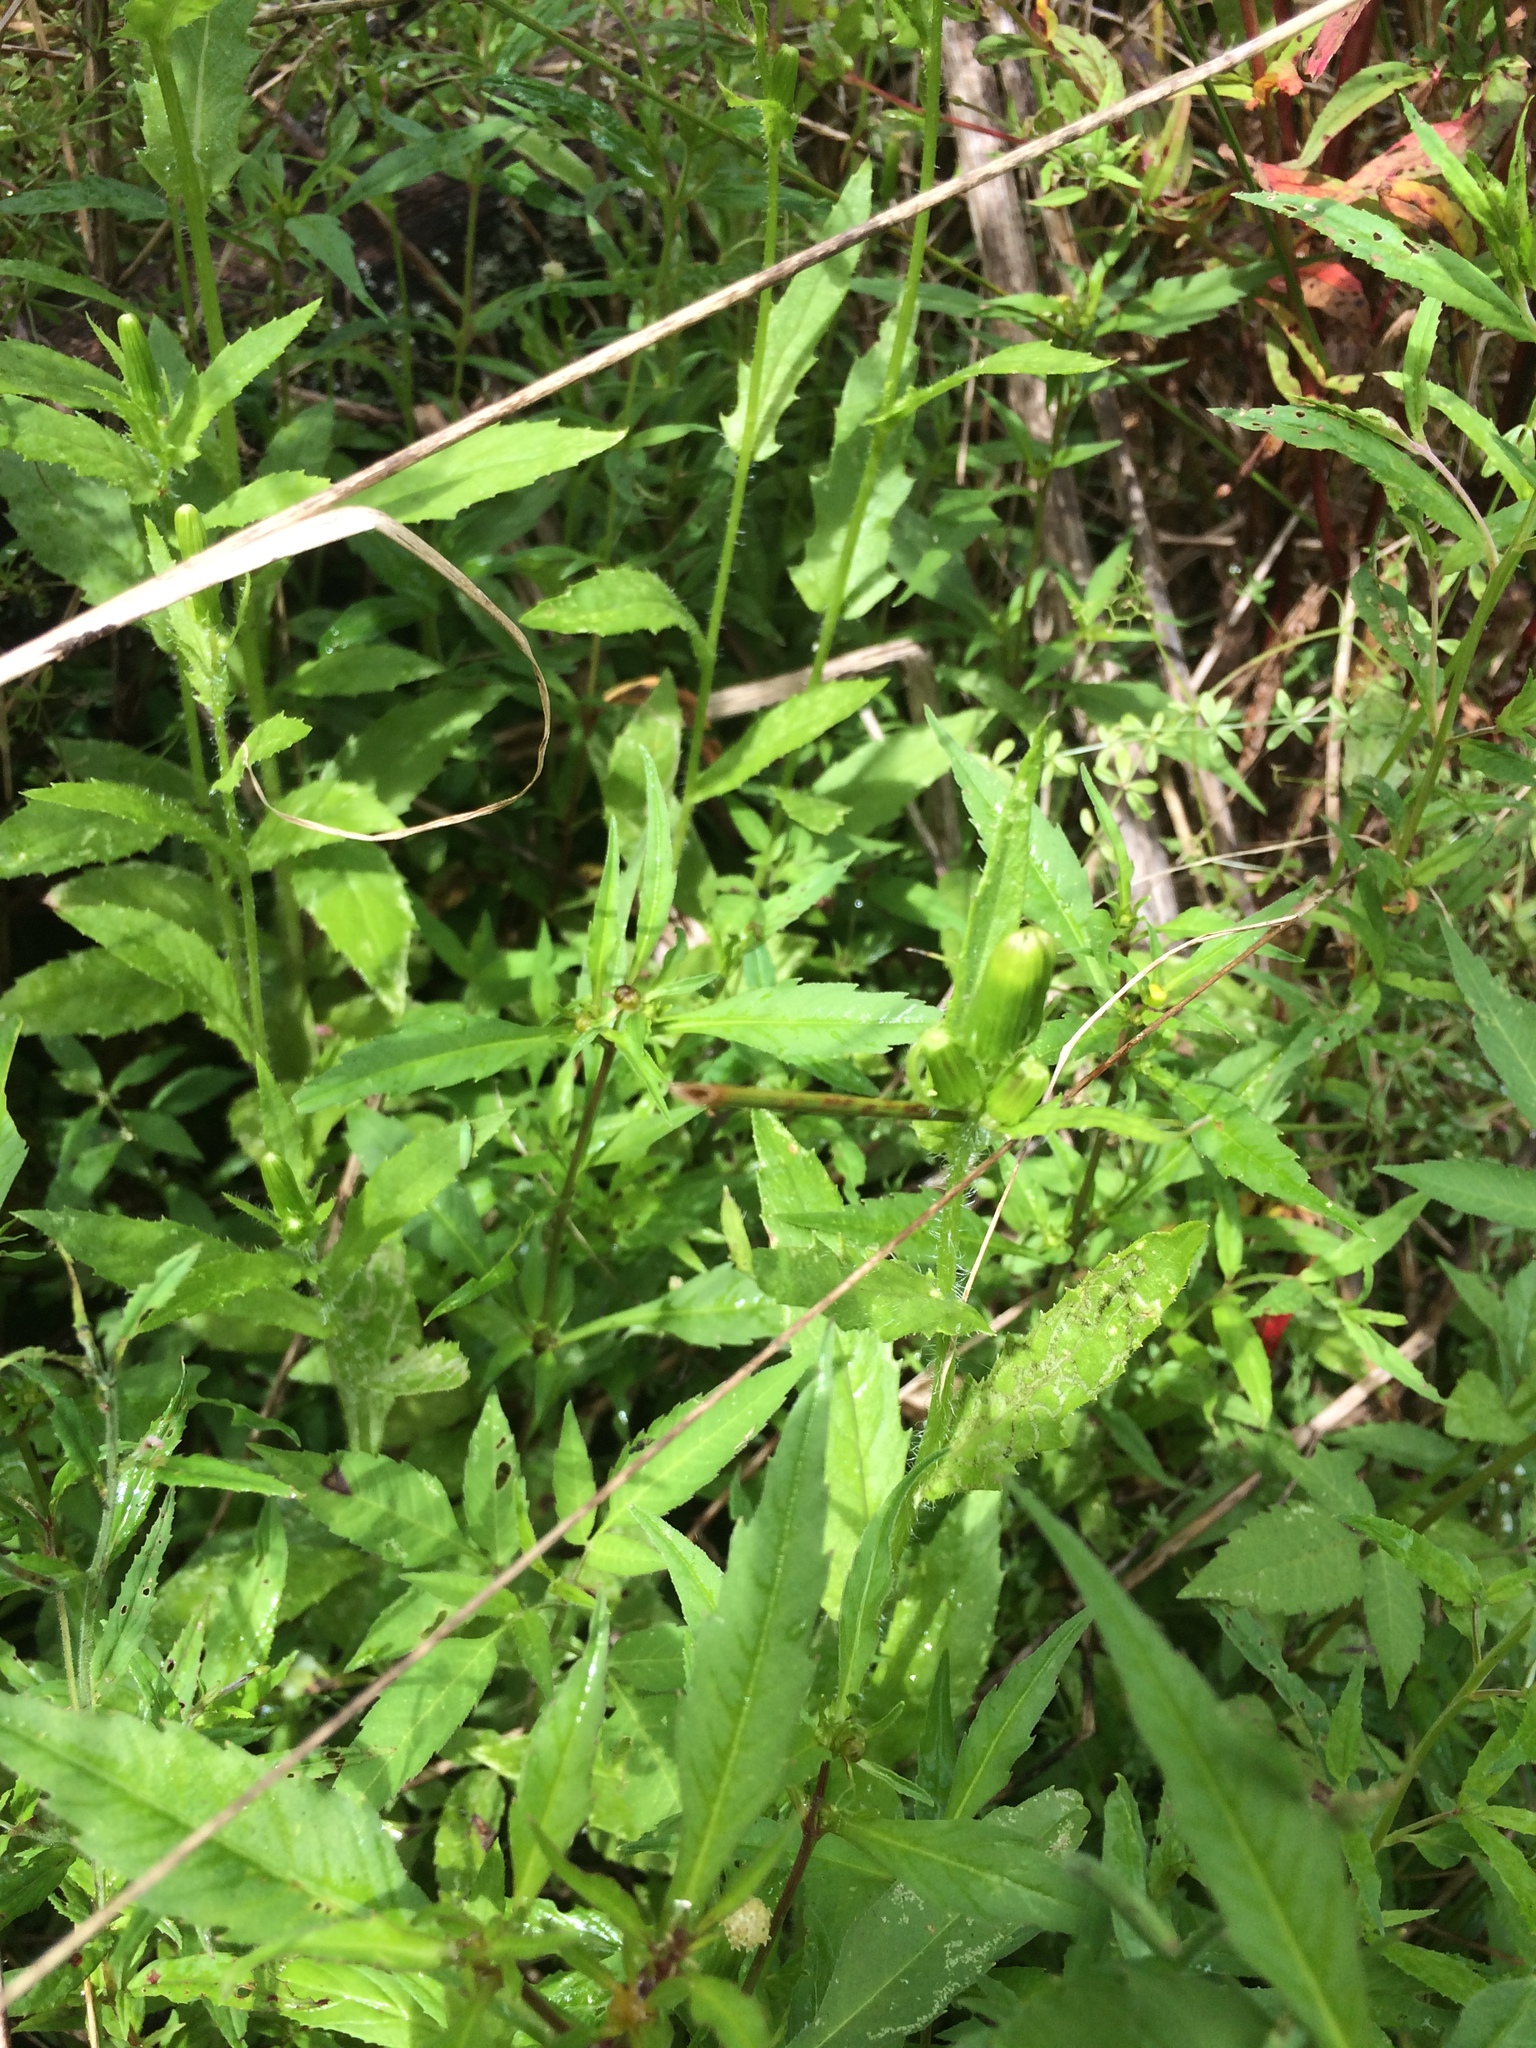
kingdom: Plantae
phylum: Tracheophyta
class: Magnoliopsida
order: Asterales
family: Asteraceae
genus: Erechtites
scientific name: Erechtites hieraciifolius
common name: American burnweed
